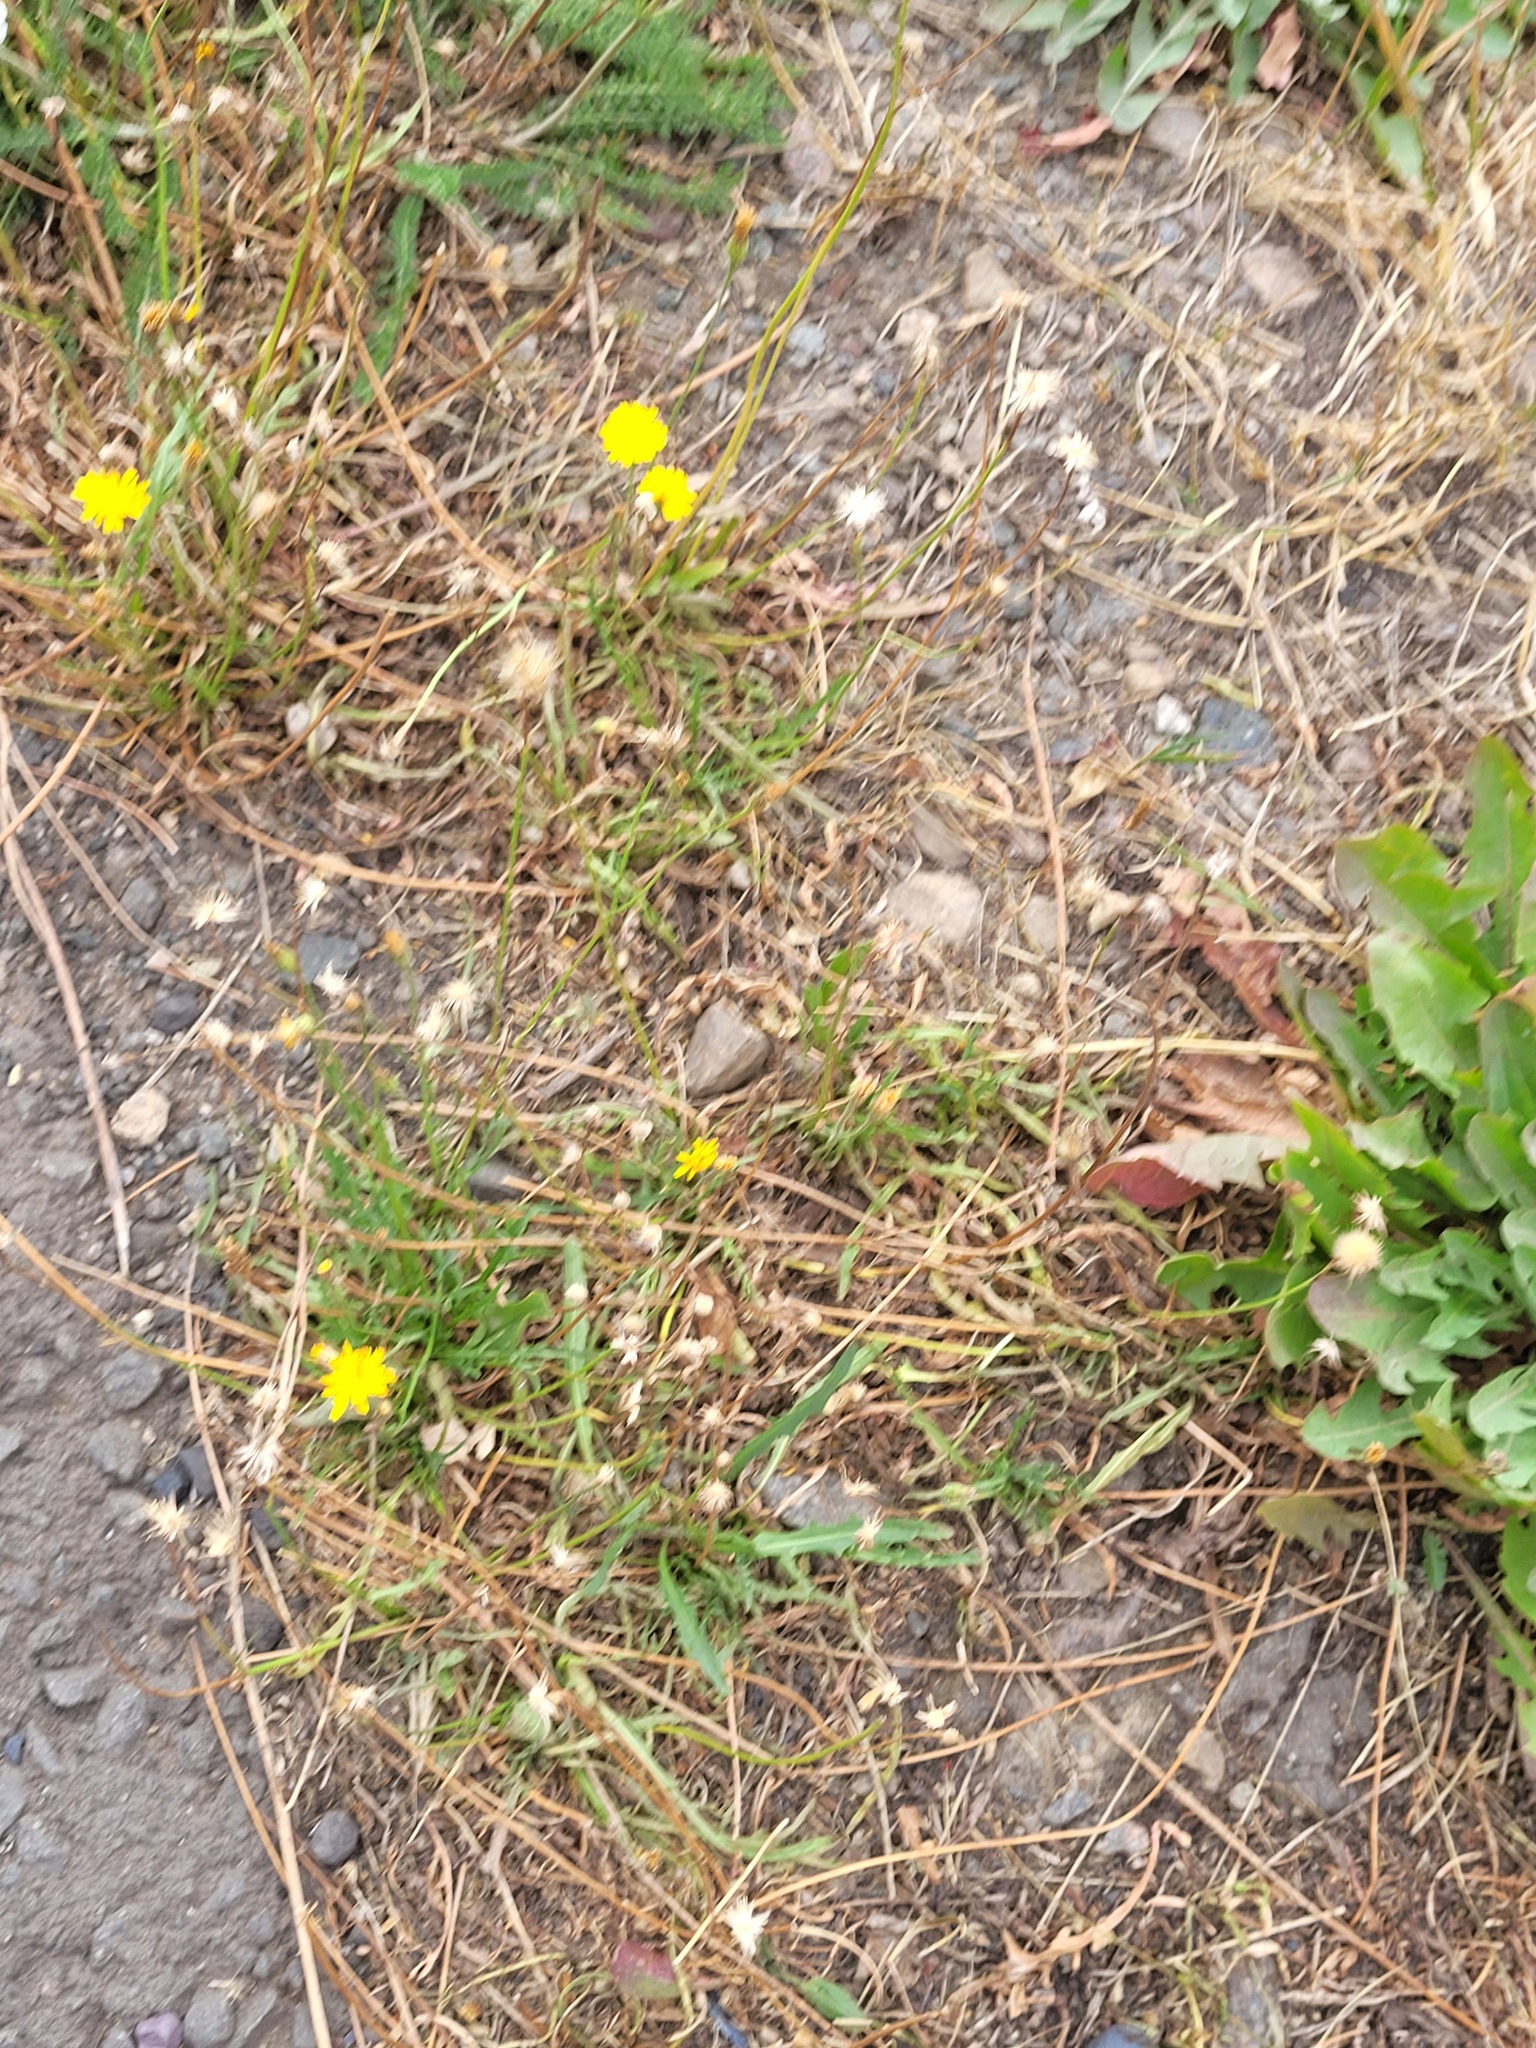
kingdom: Plantae
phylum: Tracheophyta
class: Magnoliopsida
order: Asterales
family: Asteraceae
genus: Scorzoneroides
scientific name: Scorzoneroides autumnalis
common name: Autumn hawkbit
